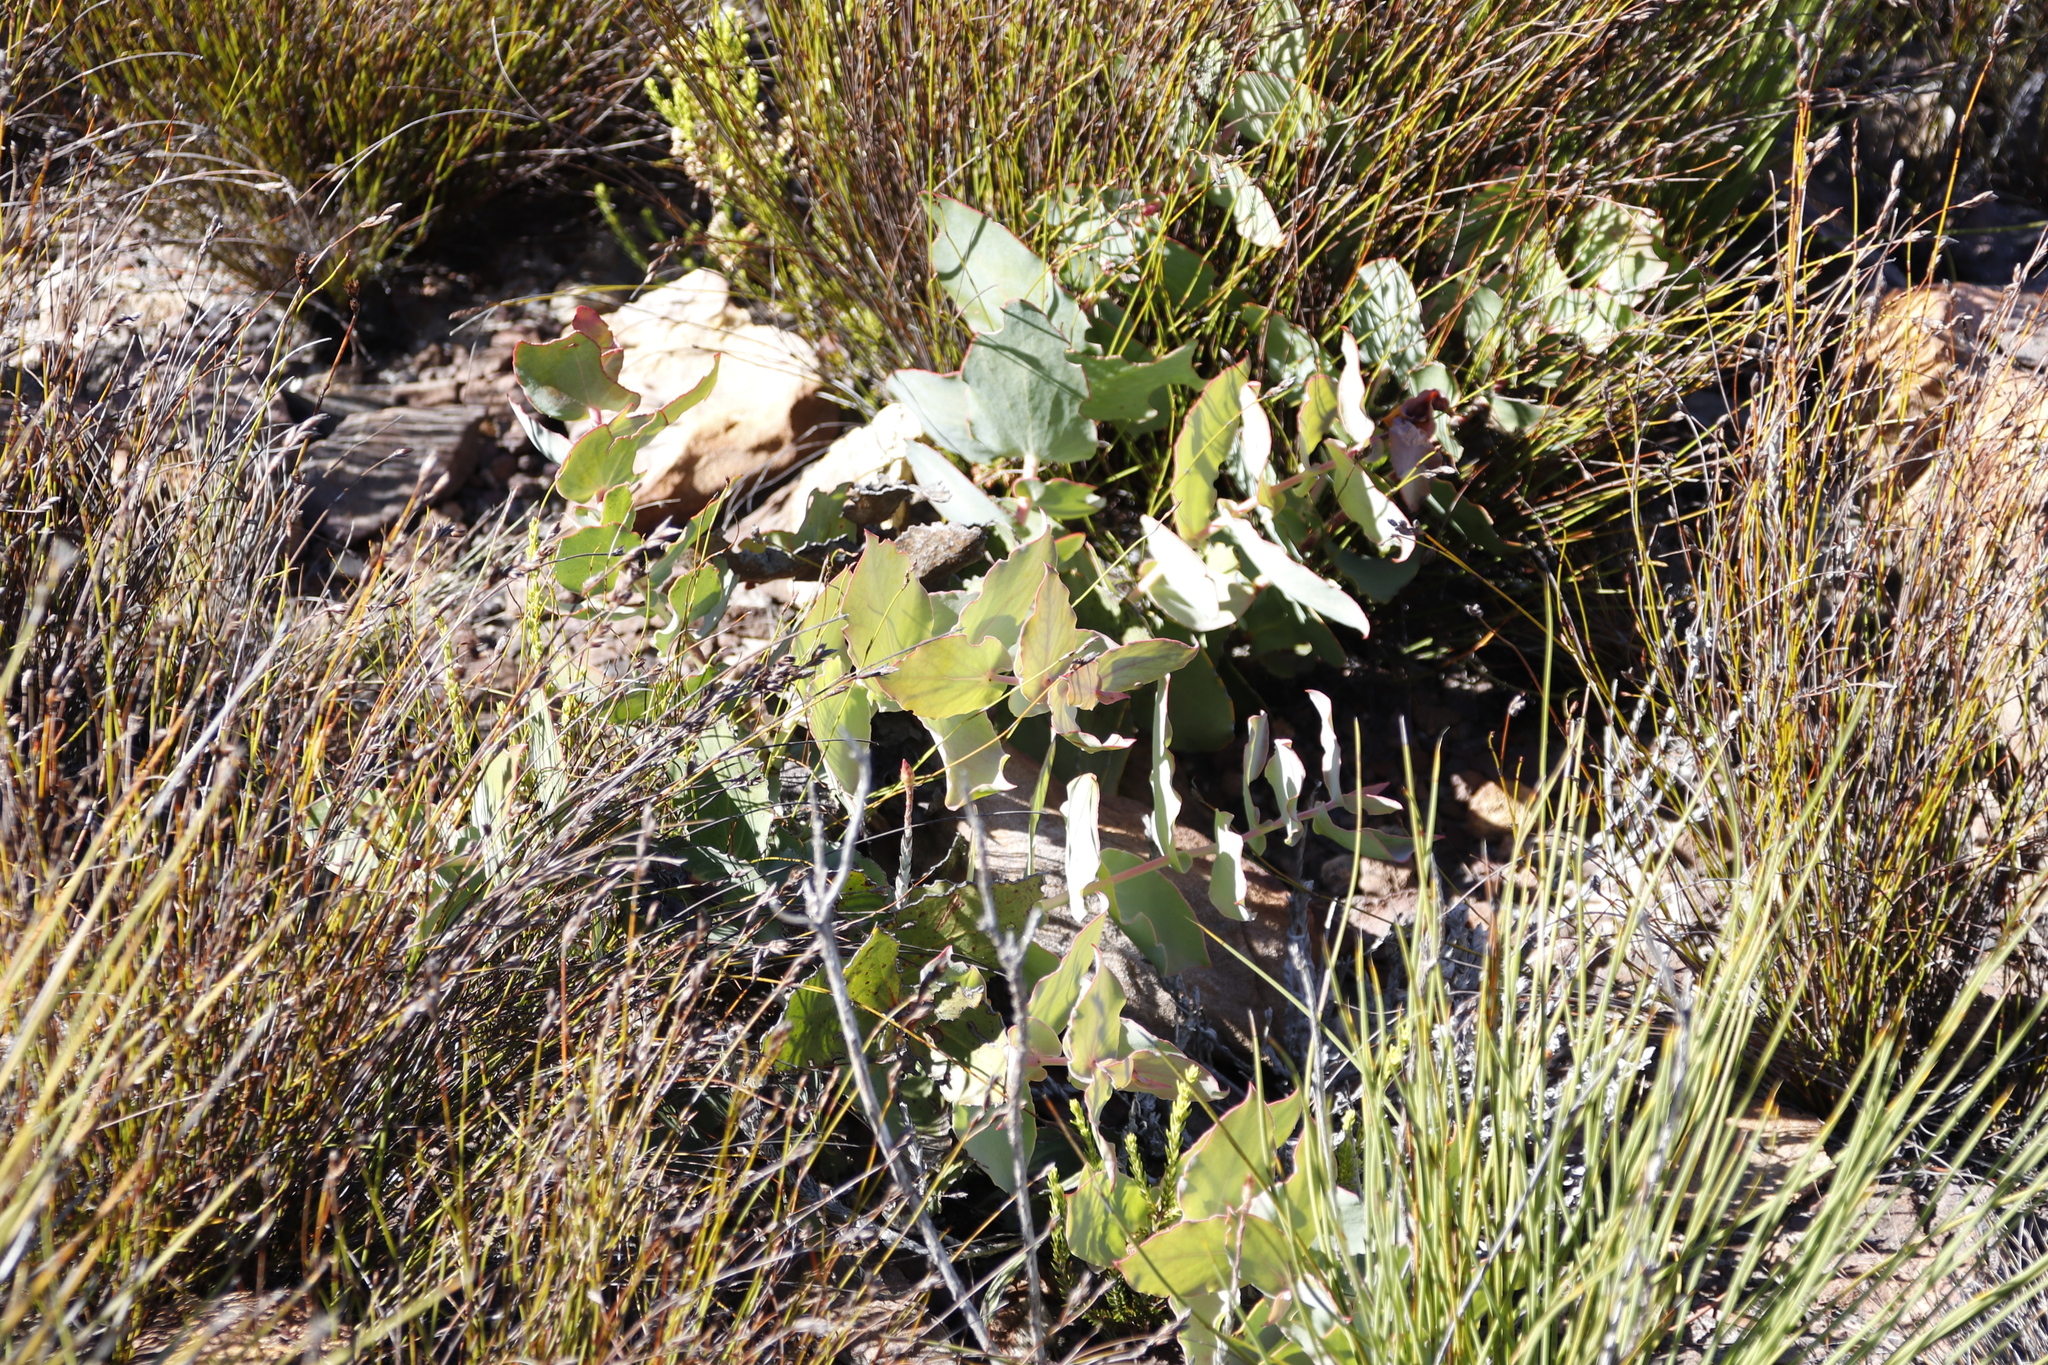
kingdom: Plantae
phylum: Tracheophyta
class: Magnoliopsida
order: Proteales
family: Proteaceae
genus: Protea
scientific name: Protea amplexicaulis
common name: Clasping-leaf sugarbush
